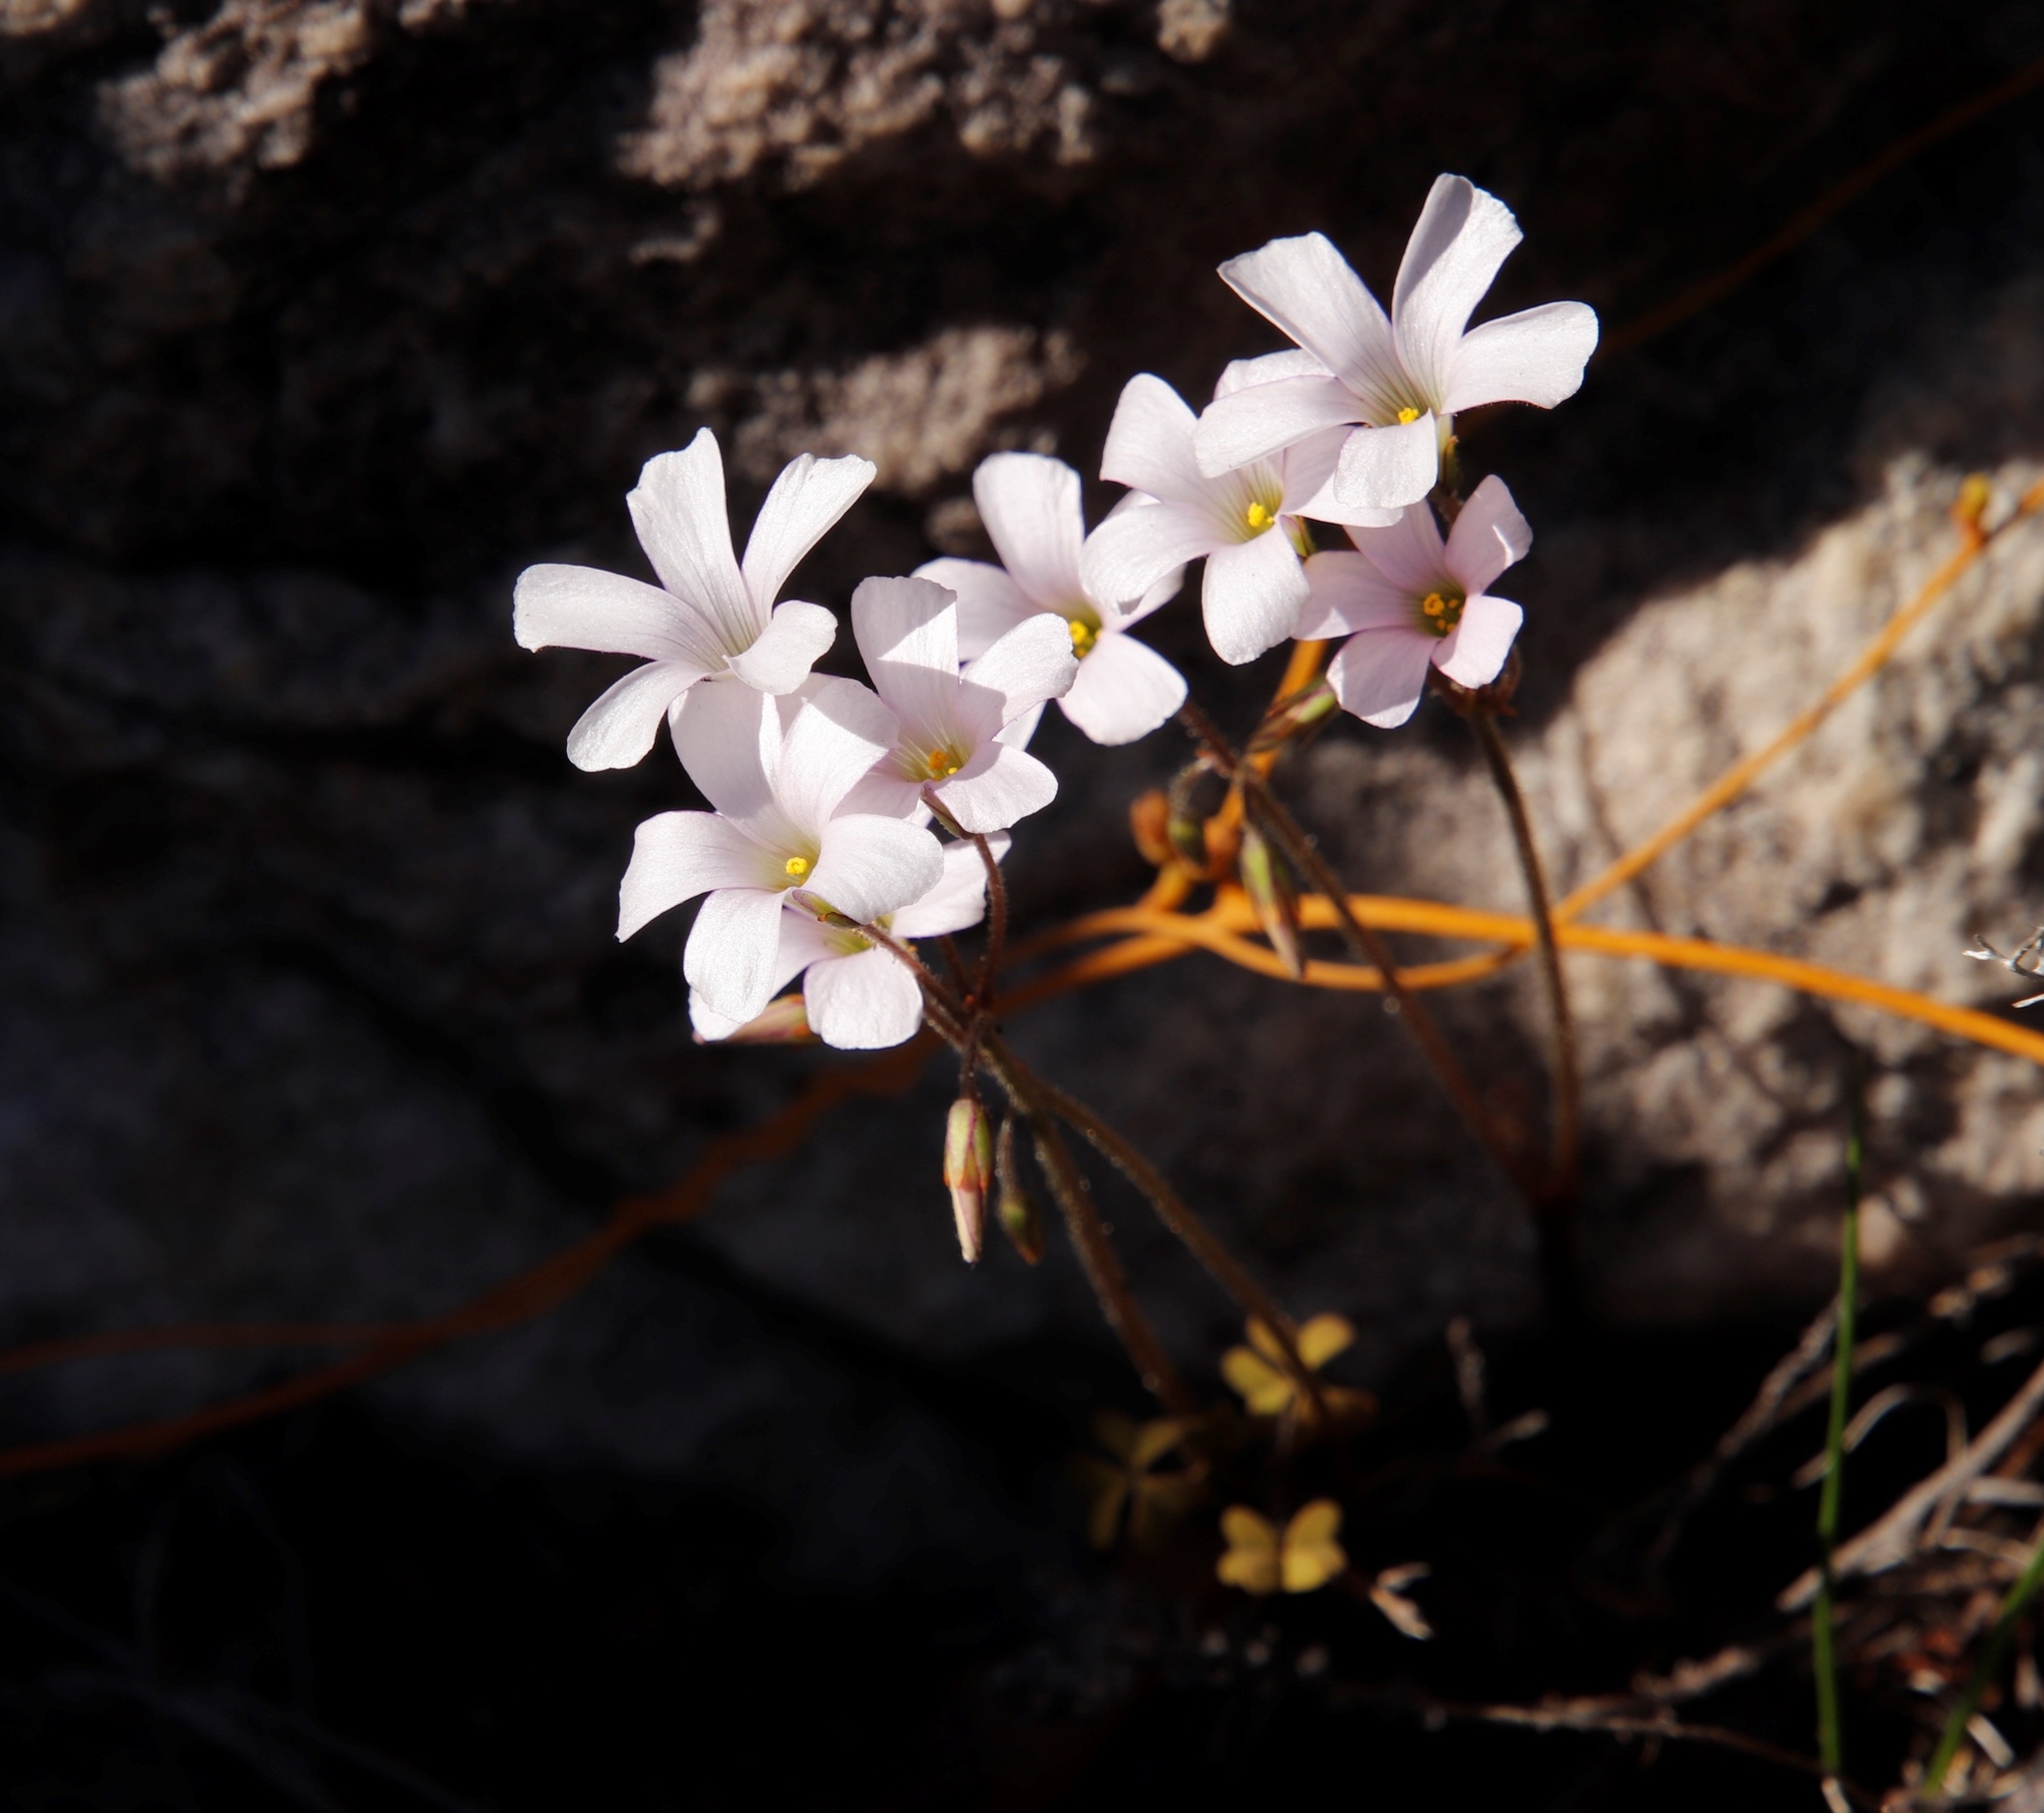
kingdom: Plantae
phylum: Tracheophyta
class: Magnoliopsida
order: Oxalidales
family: Oxalidaceae
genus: Oxalis
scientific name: Oxalis
